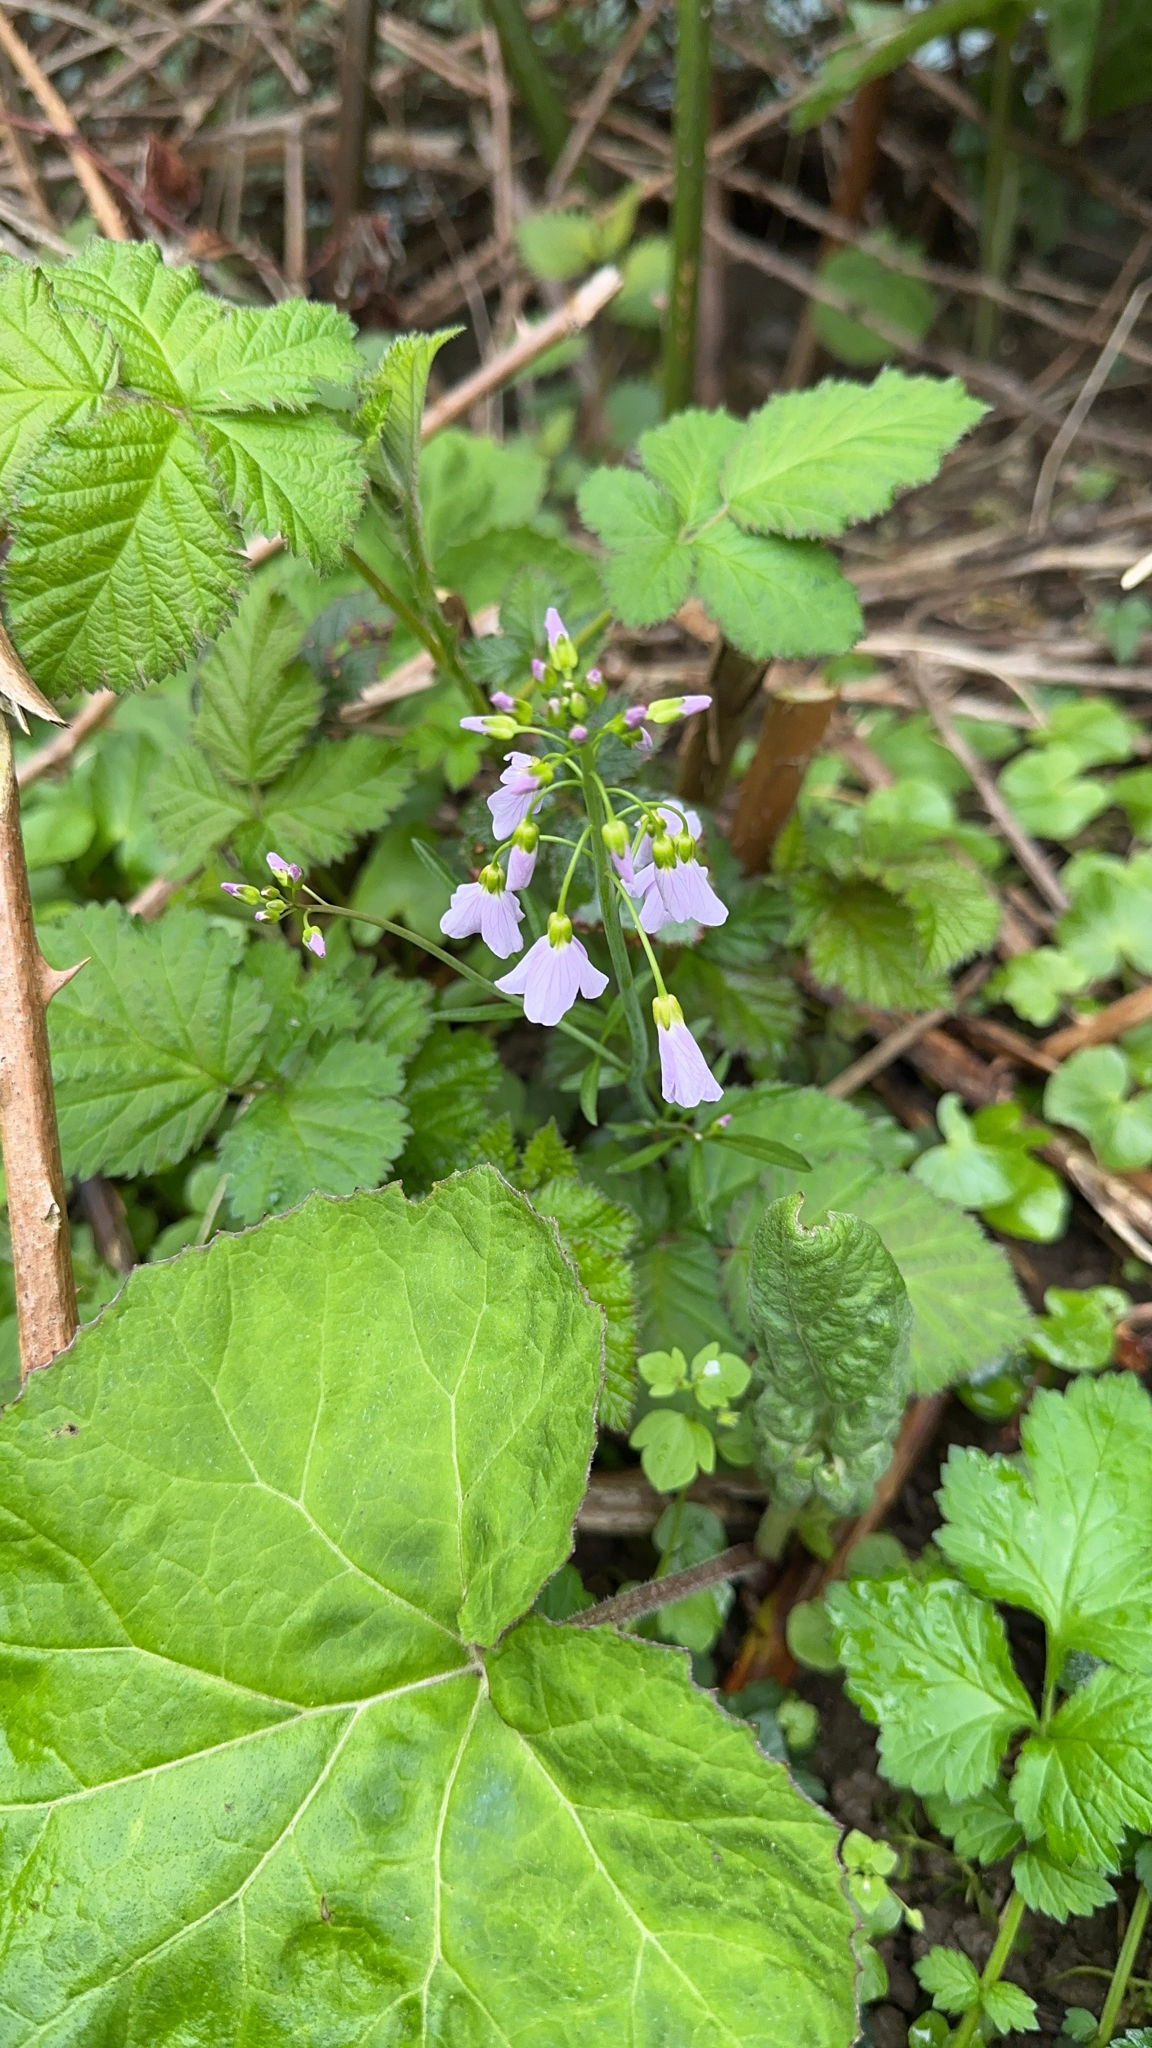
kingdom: Plantae
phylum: Tracheophyta
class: Magnoliopsida
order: Brassicales
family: Brassicaceae
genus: Cardamine
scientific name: Cardamine pratensis
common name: Cuckoo flower
